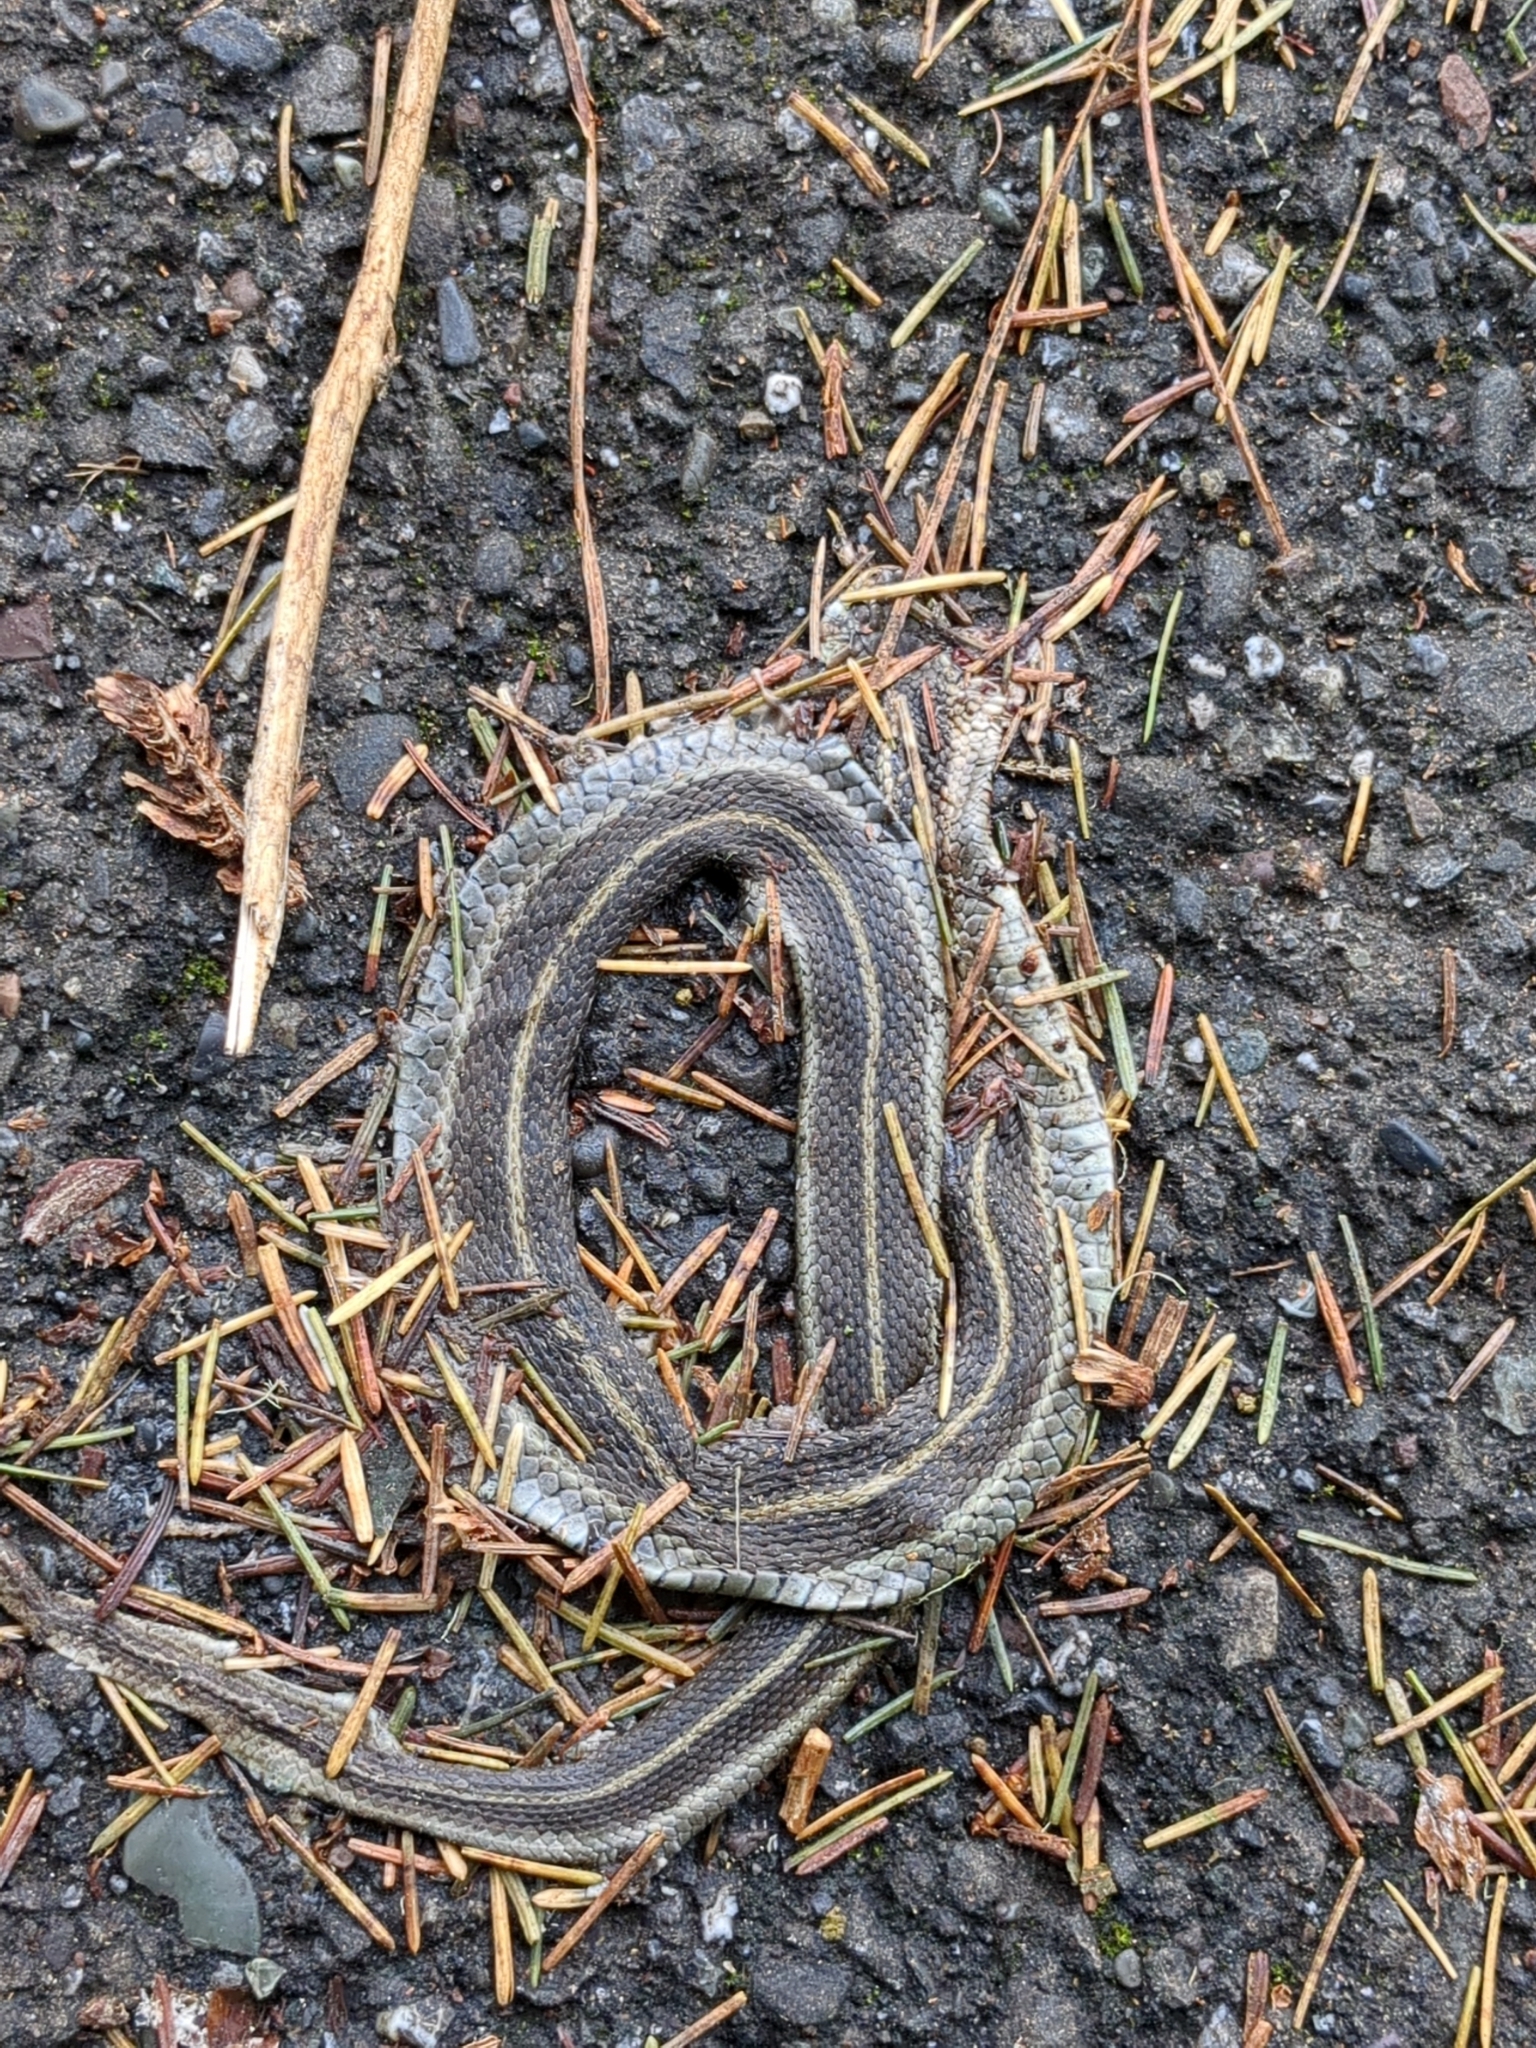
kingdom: Animalia
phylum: Chordata
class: Squamata
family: Colubridae
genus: Thamnophis
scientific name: Thamnophis elegans
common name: Western terrestrial garter snake
